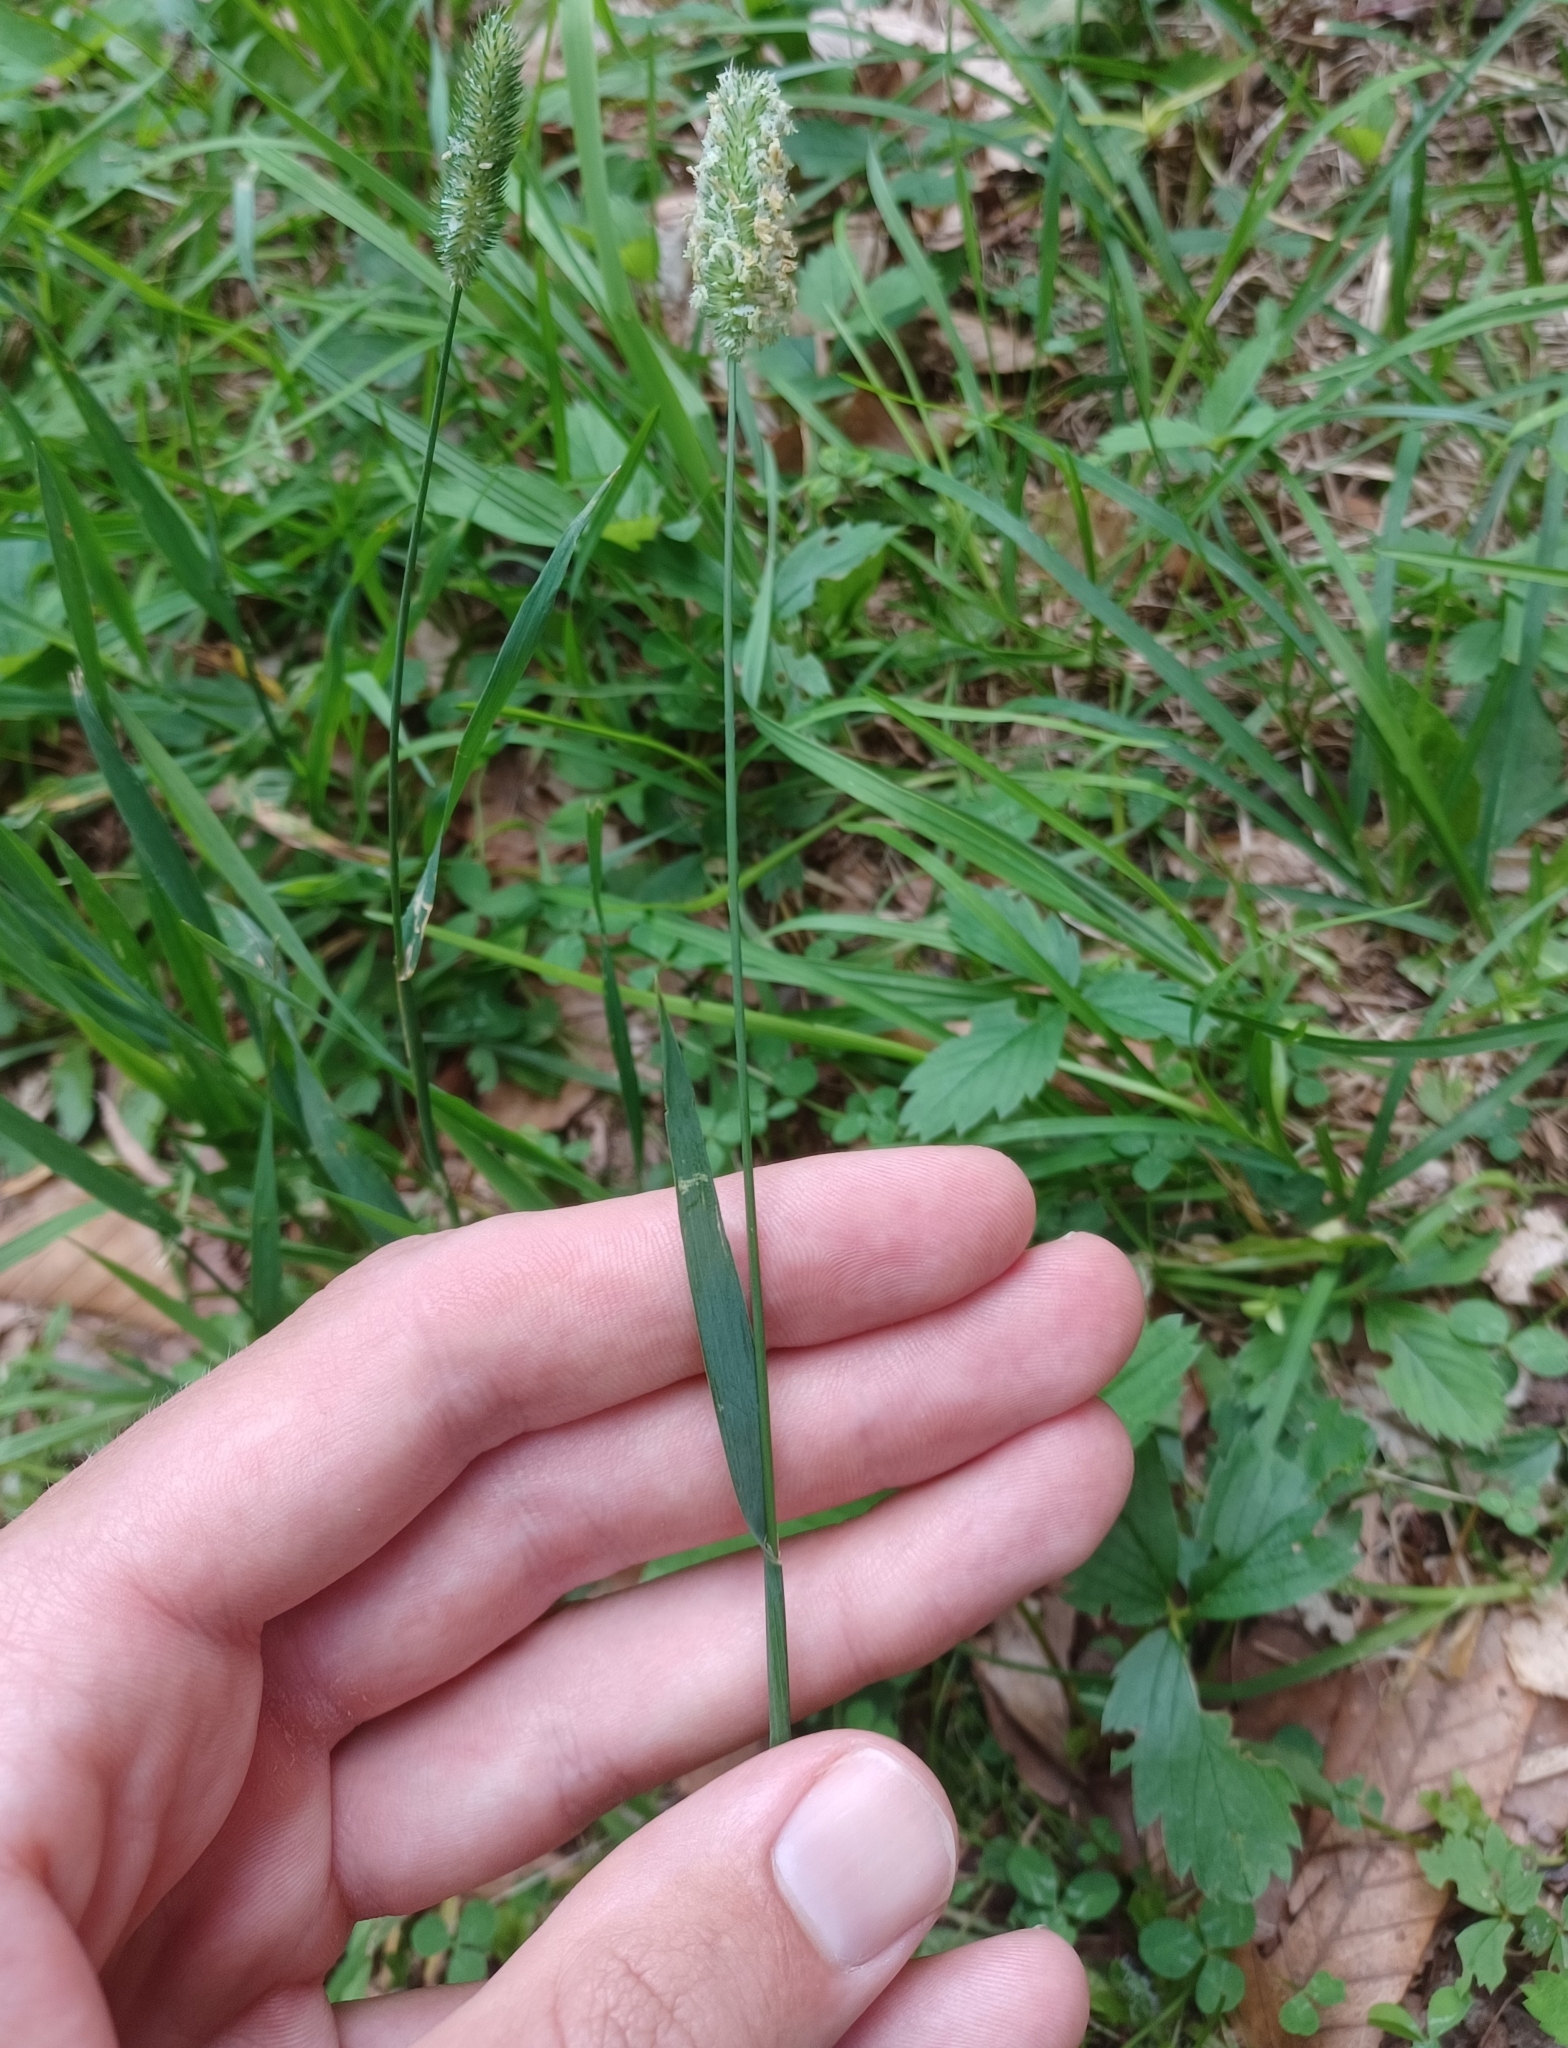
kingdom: Plantae
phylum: Tracheophyta
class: Liliopsida
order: Poales
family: Poaceae
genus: Phleum
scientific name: Phleum pratense
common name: Timothy grass
